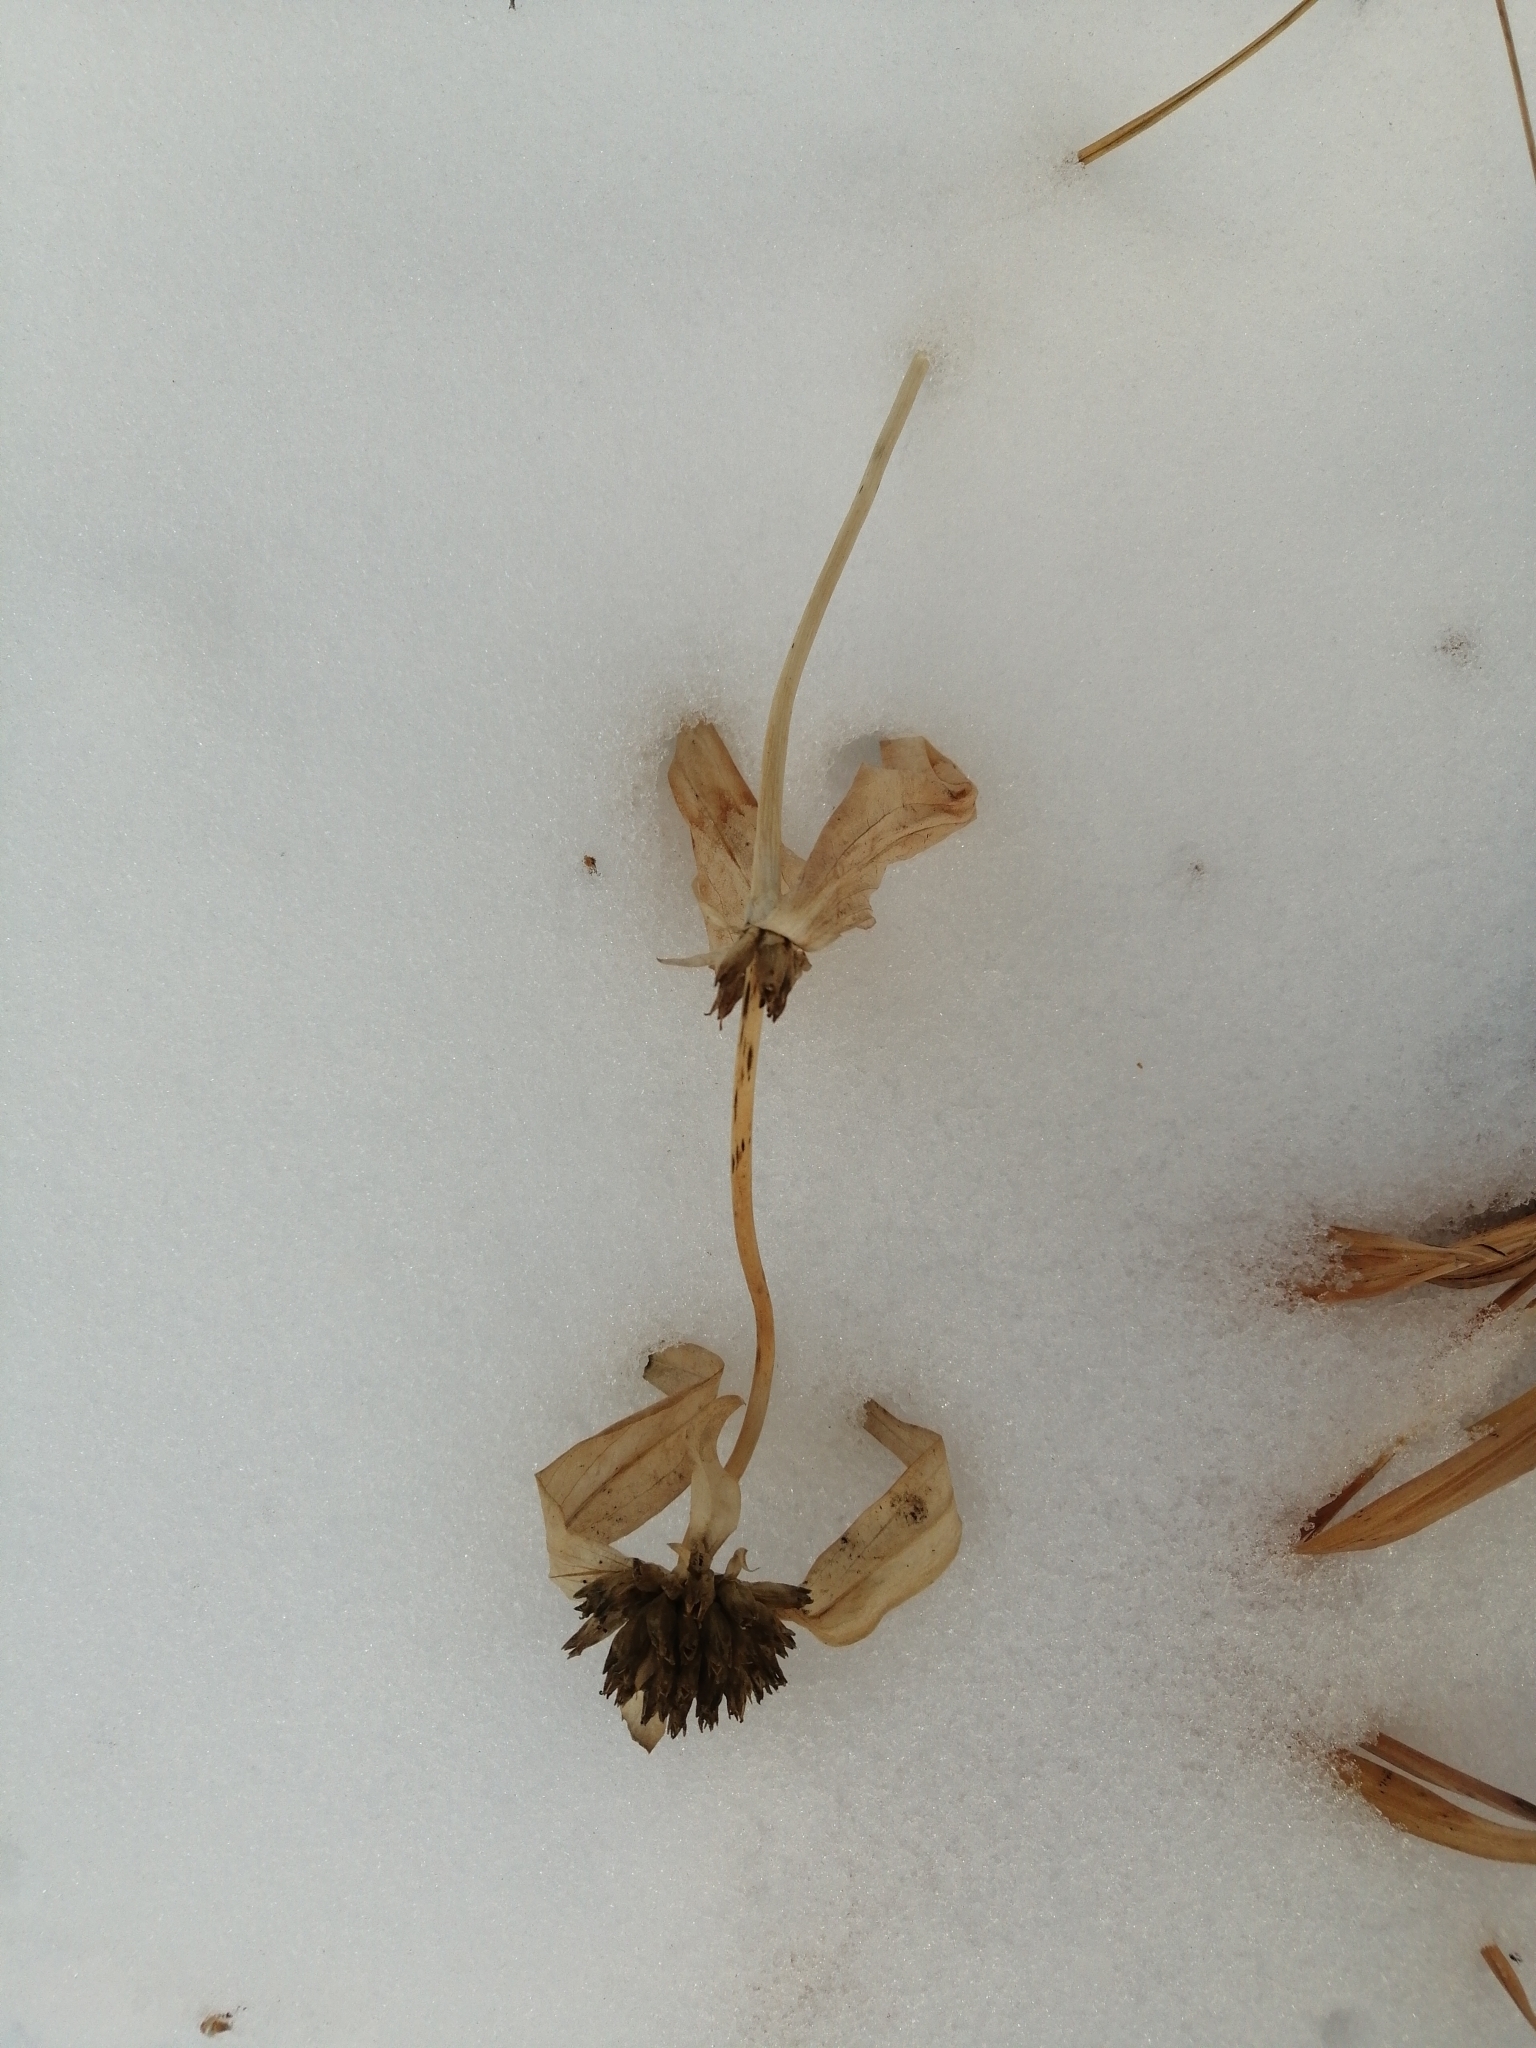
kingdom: Plantae
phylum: Tracheophyta
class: Magnoliopsida
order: Gentianales
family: Gentianaceae
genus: Gentiana
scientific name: Gentiana macrophylla
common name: Large-leaf gentian
